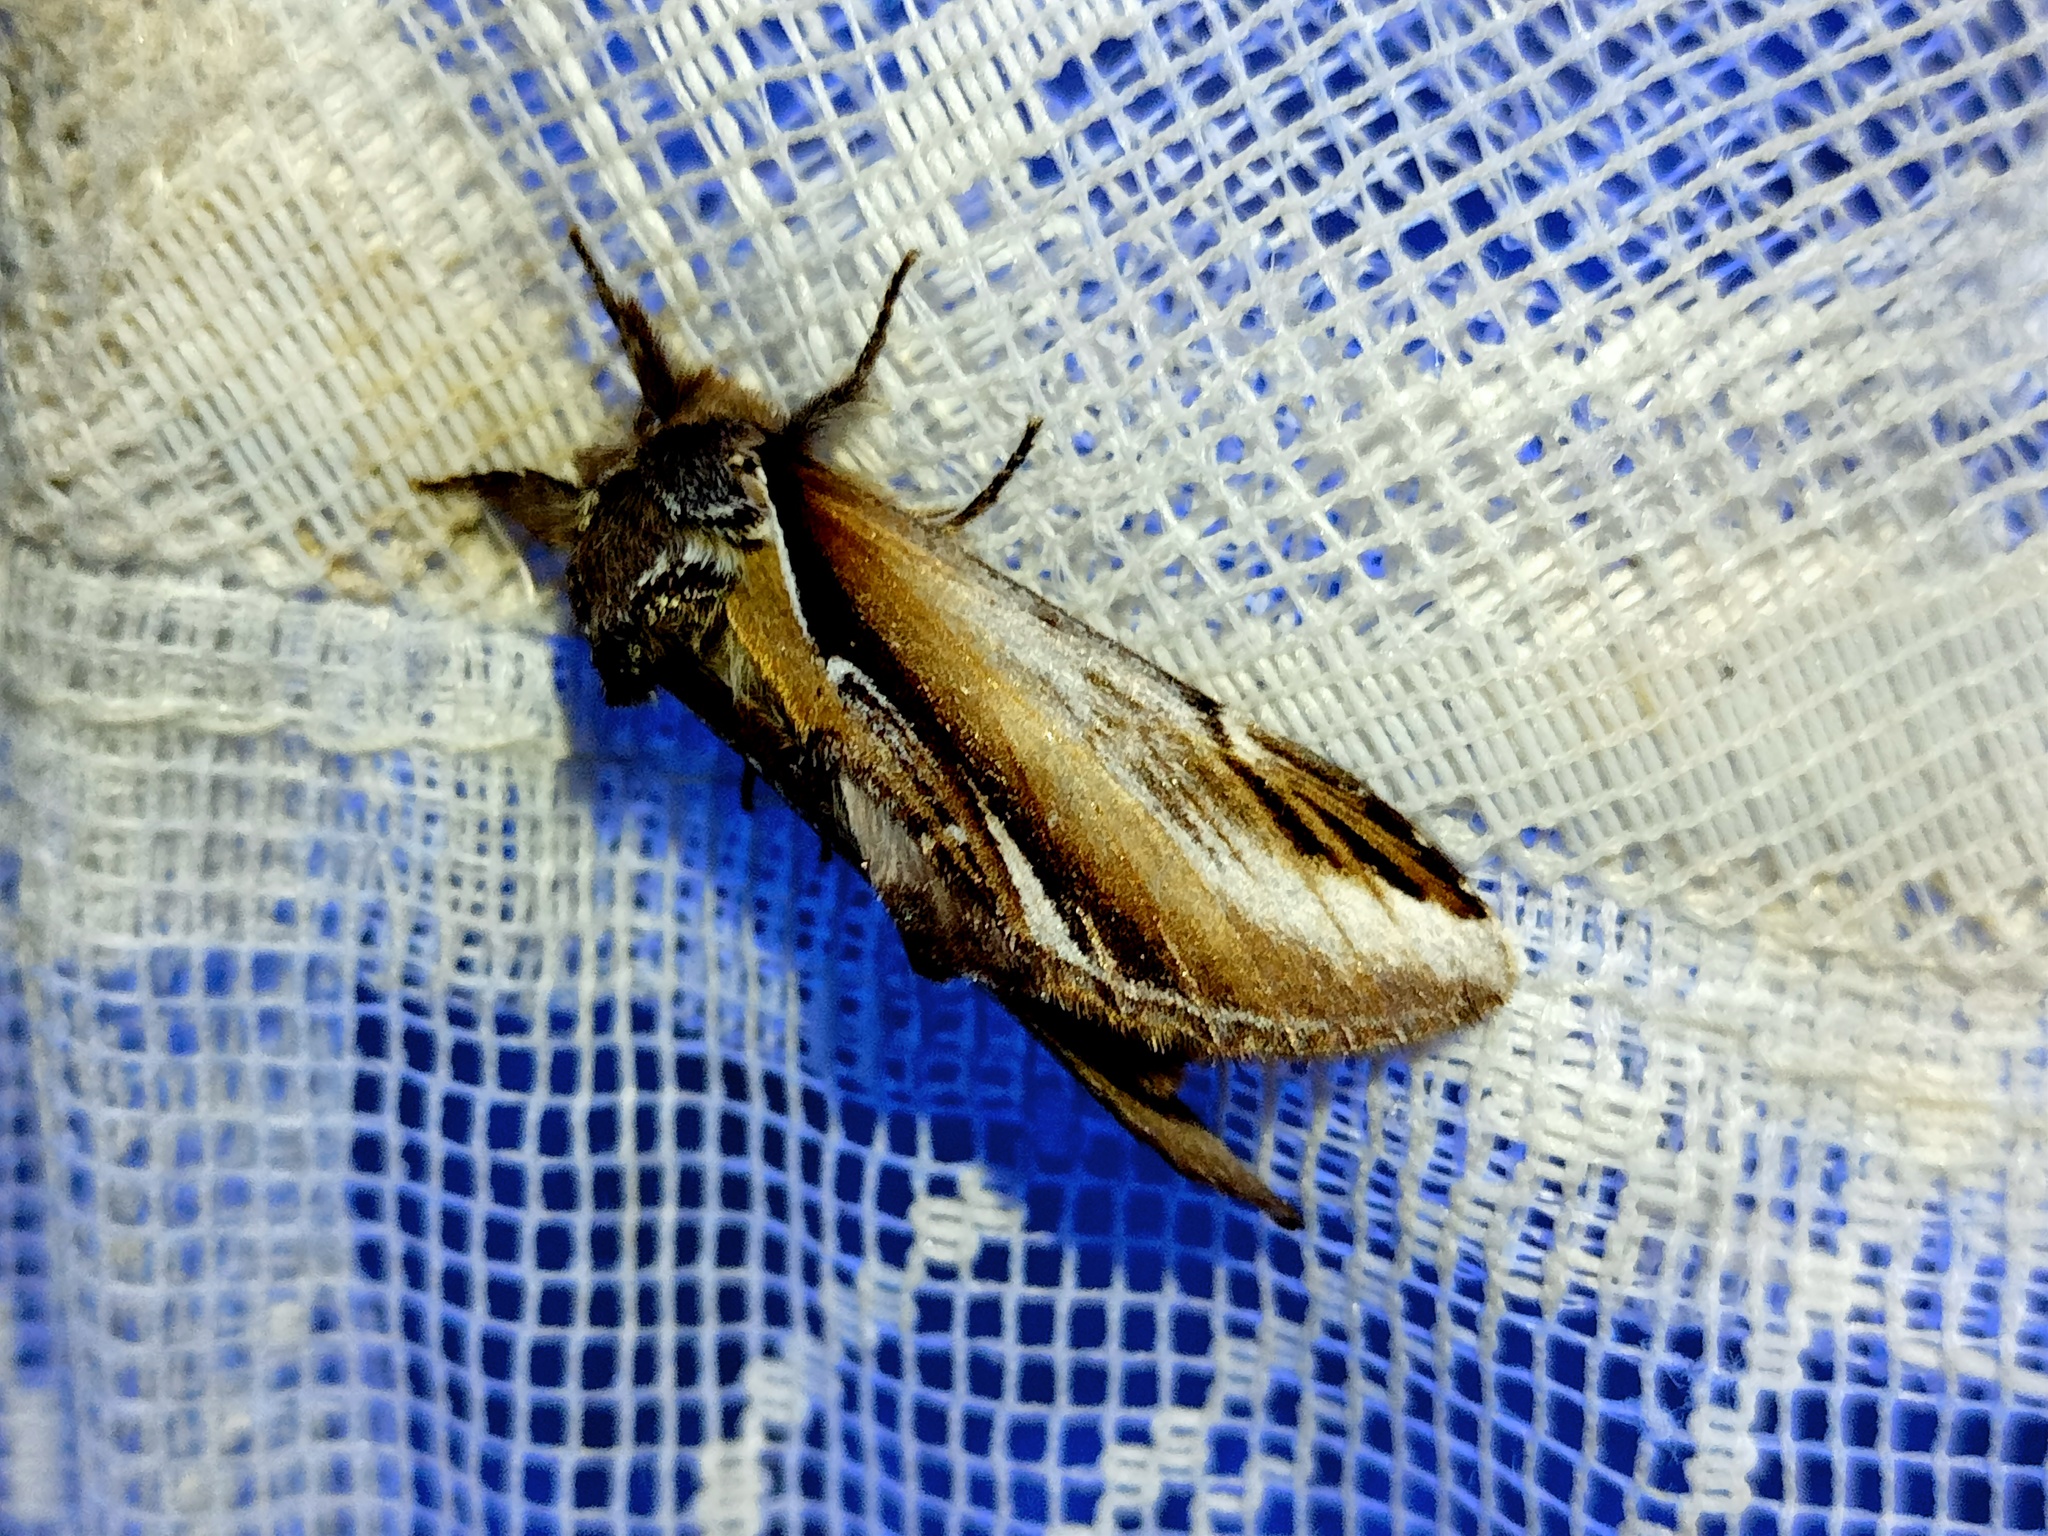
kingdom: Animalia
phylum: Arthropoda
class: Insecta
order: Lepidoptera
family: Notodontidae
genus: Pheosia
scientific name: Pheosia gnoma
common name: Lesser swallow prominent
